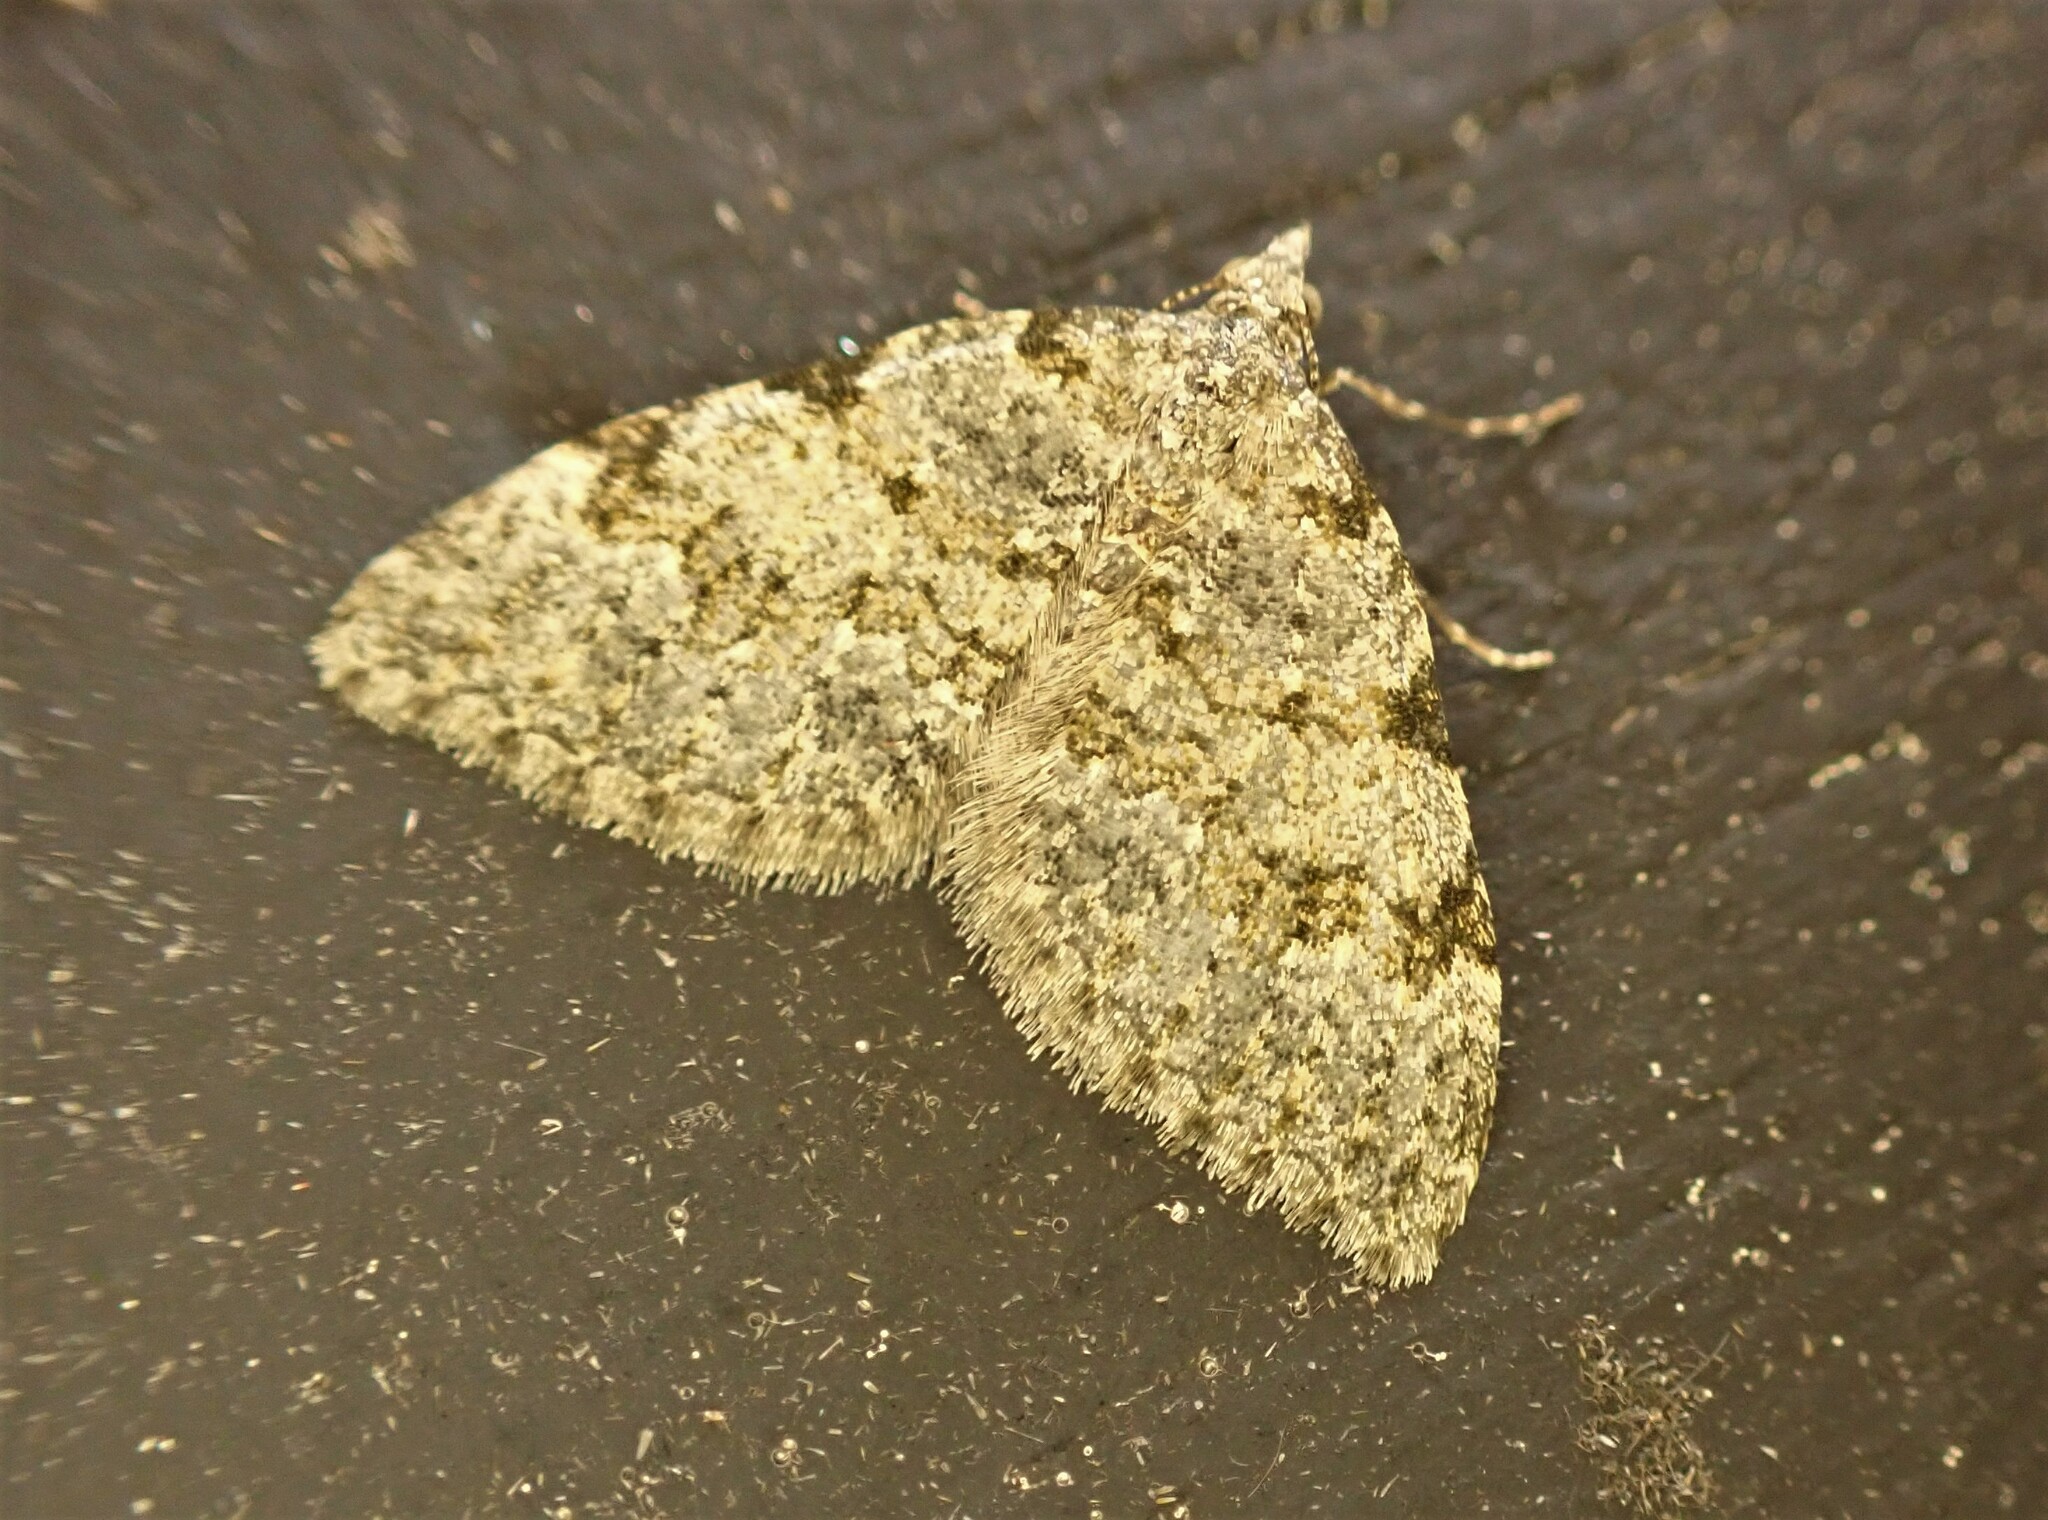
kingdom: Animalia
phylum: Arthropoda
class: Insecta
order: Lepidoptera
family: Geometridae
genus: Helastia
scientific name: Helastia cinerearia
